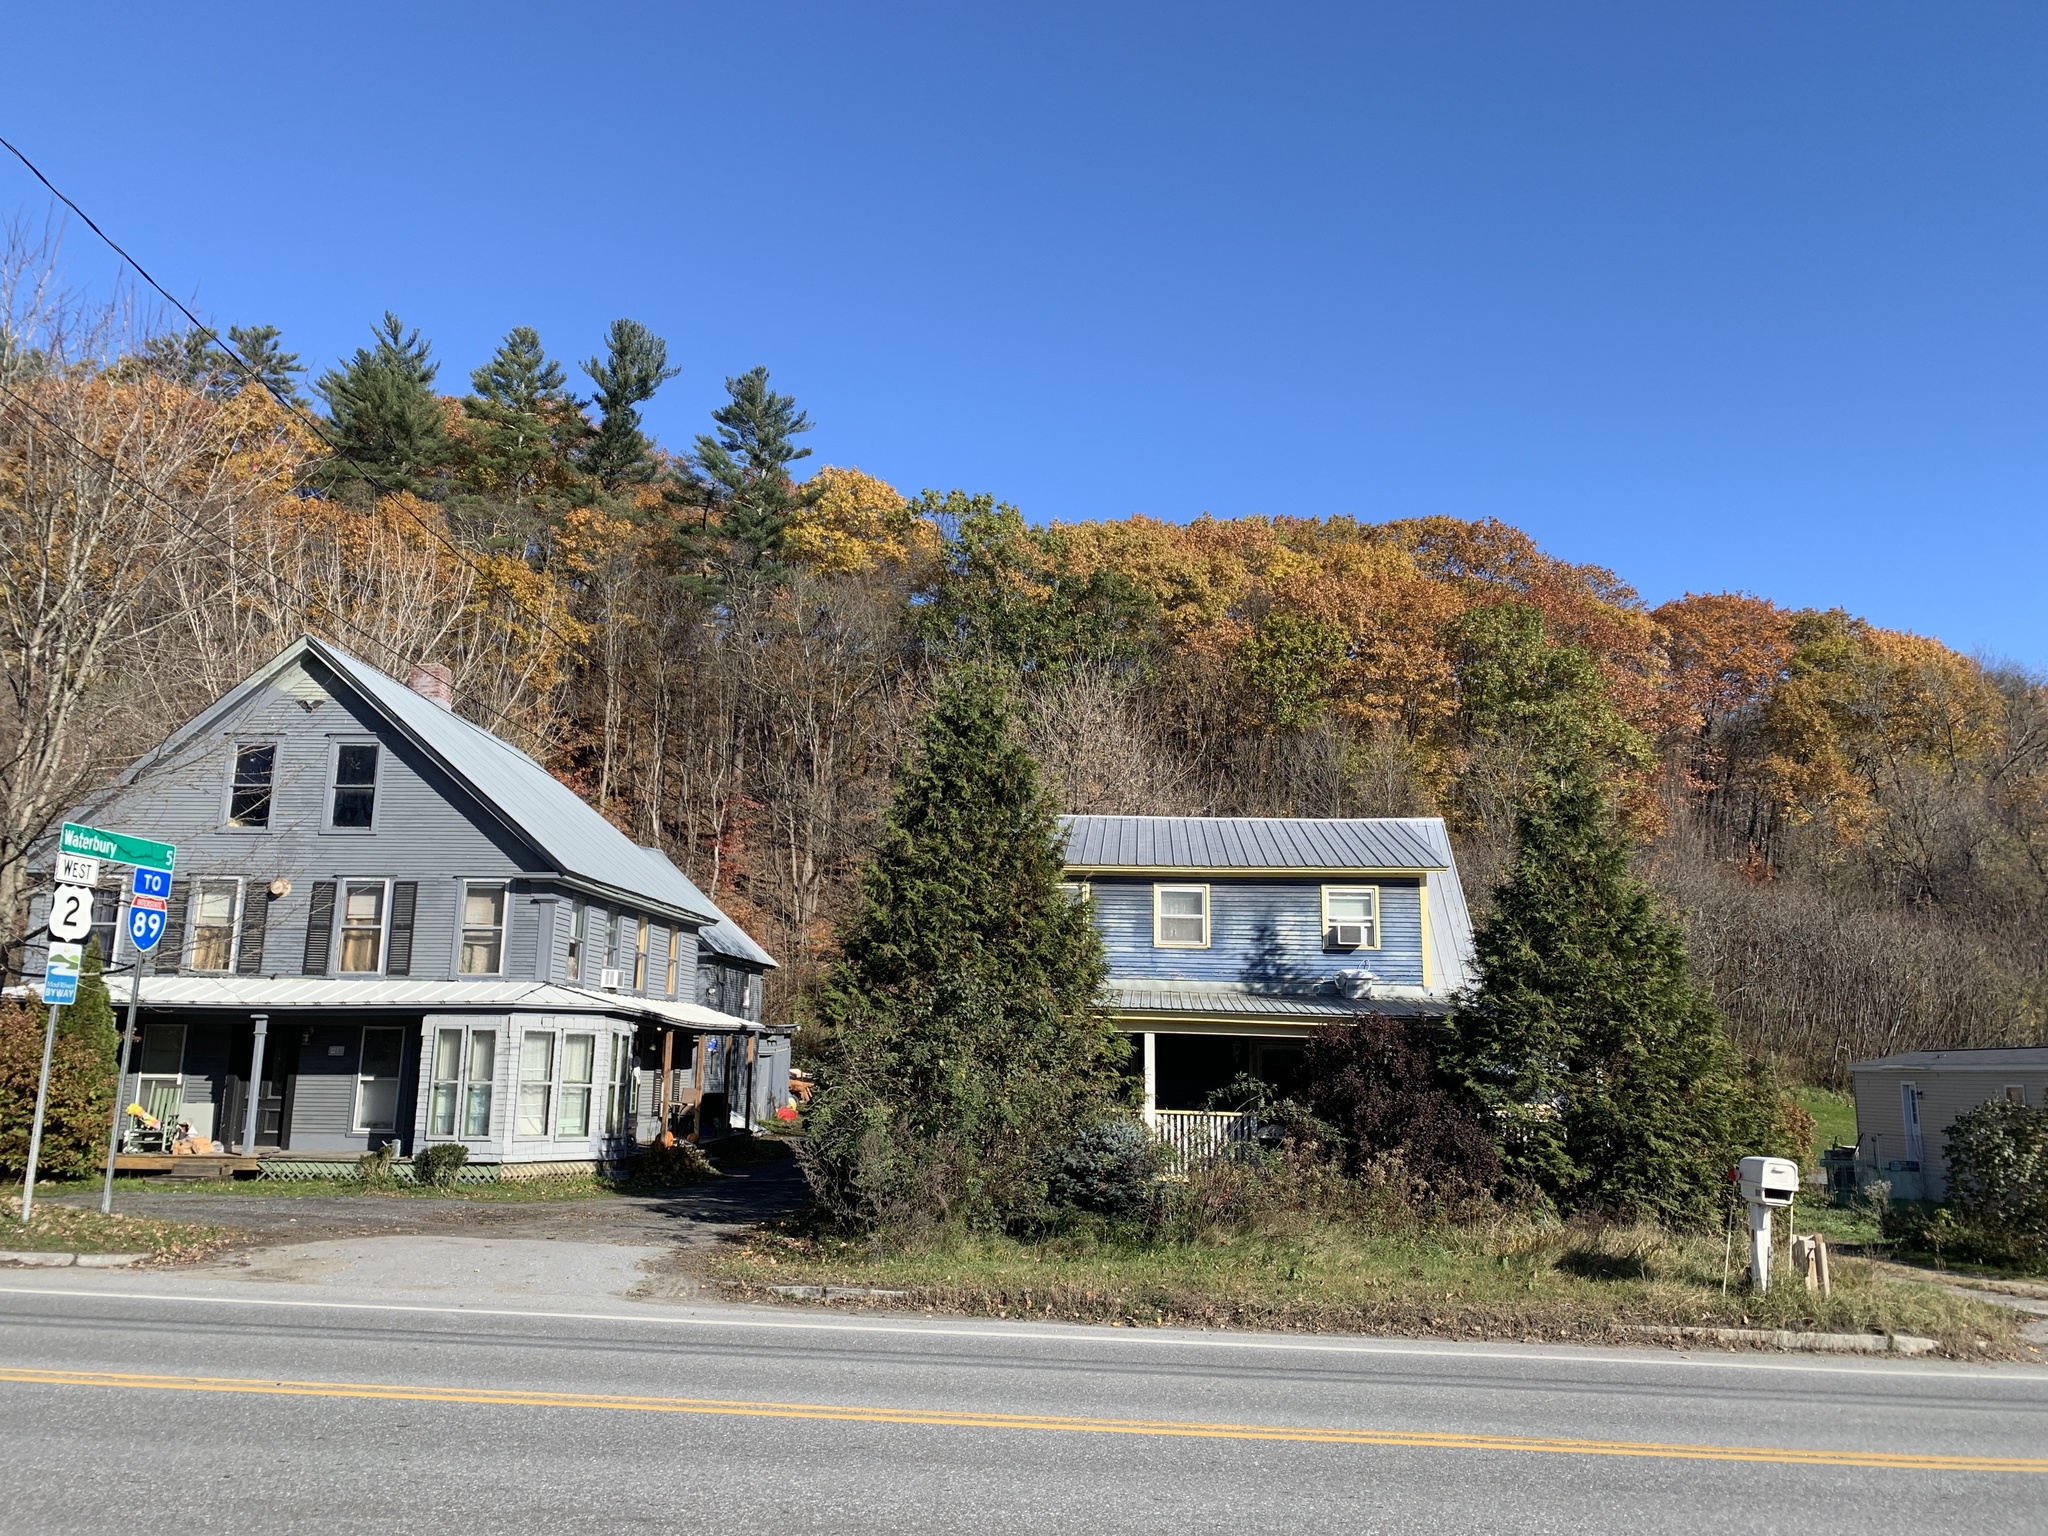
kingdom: Plantae
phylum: Tracheophyta
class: Pinopsida
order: Pinales
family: Pinaceae
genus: Pinus
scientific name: Pinus strobus
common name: Weymouth pine
